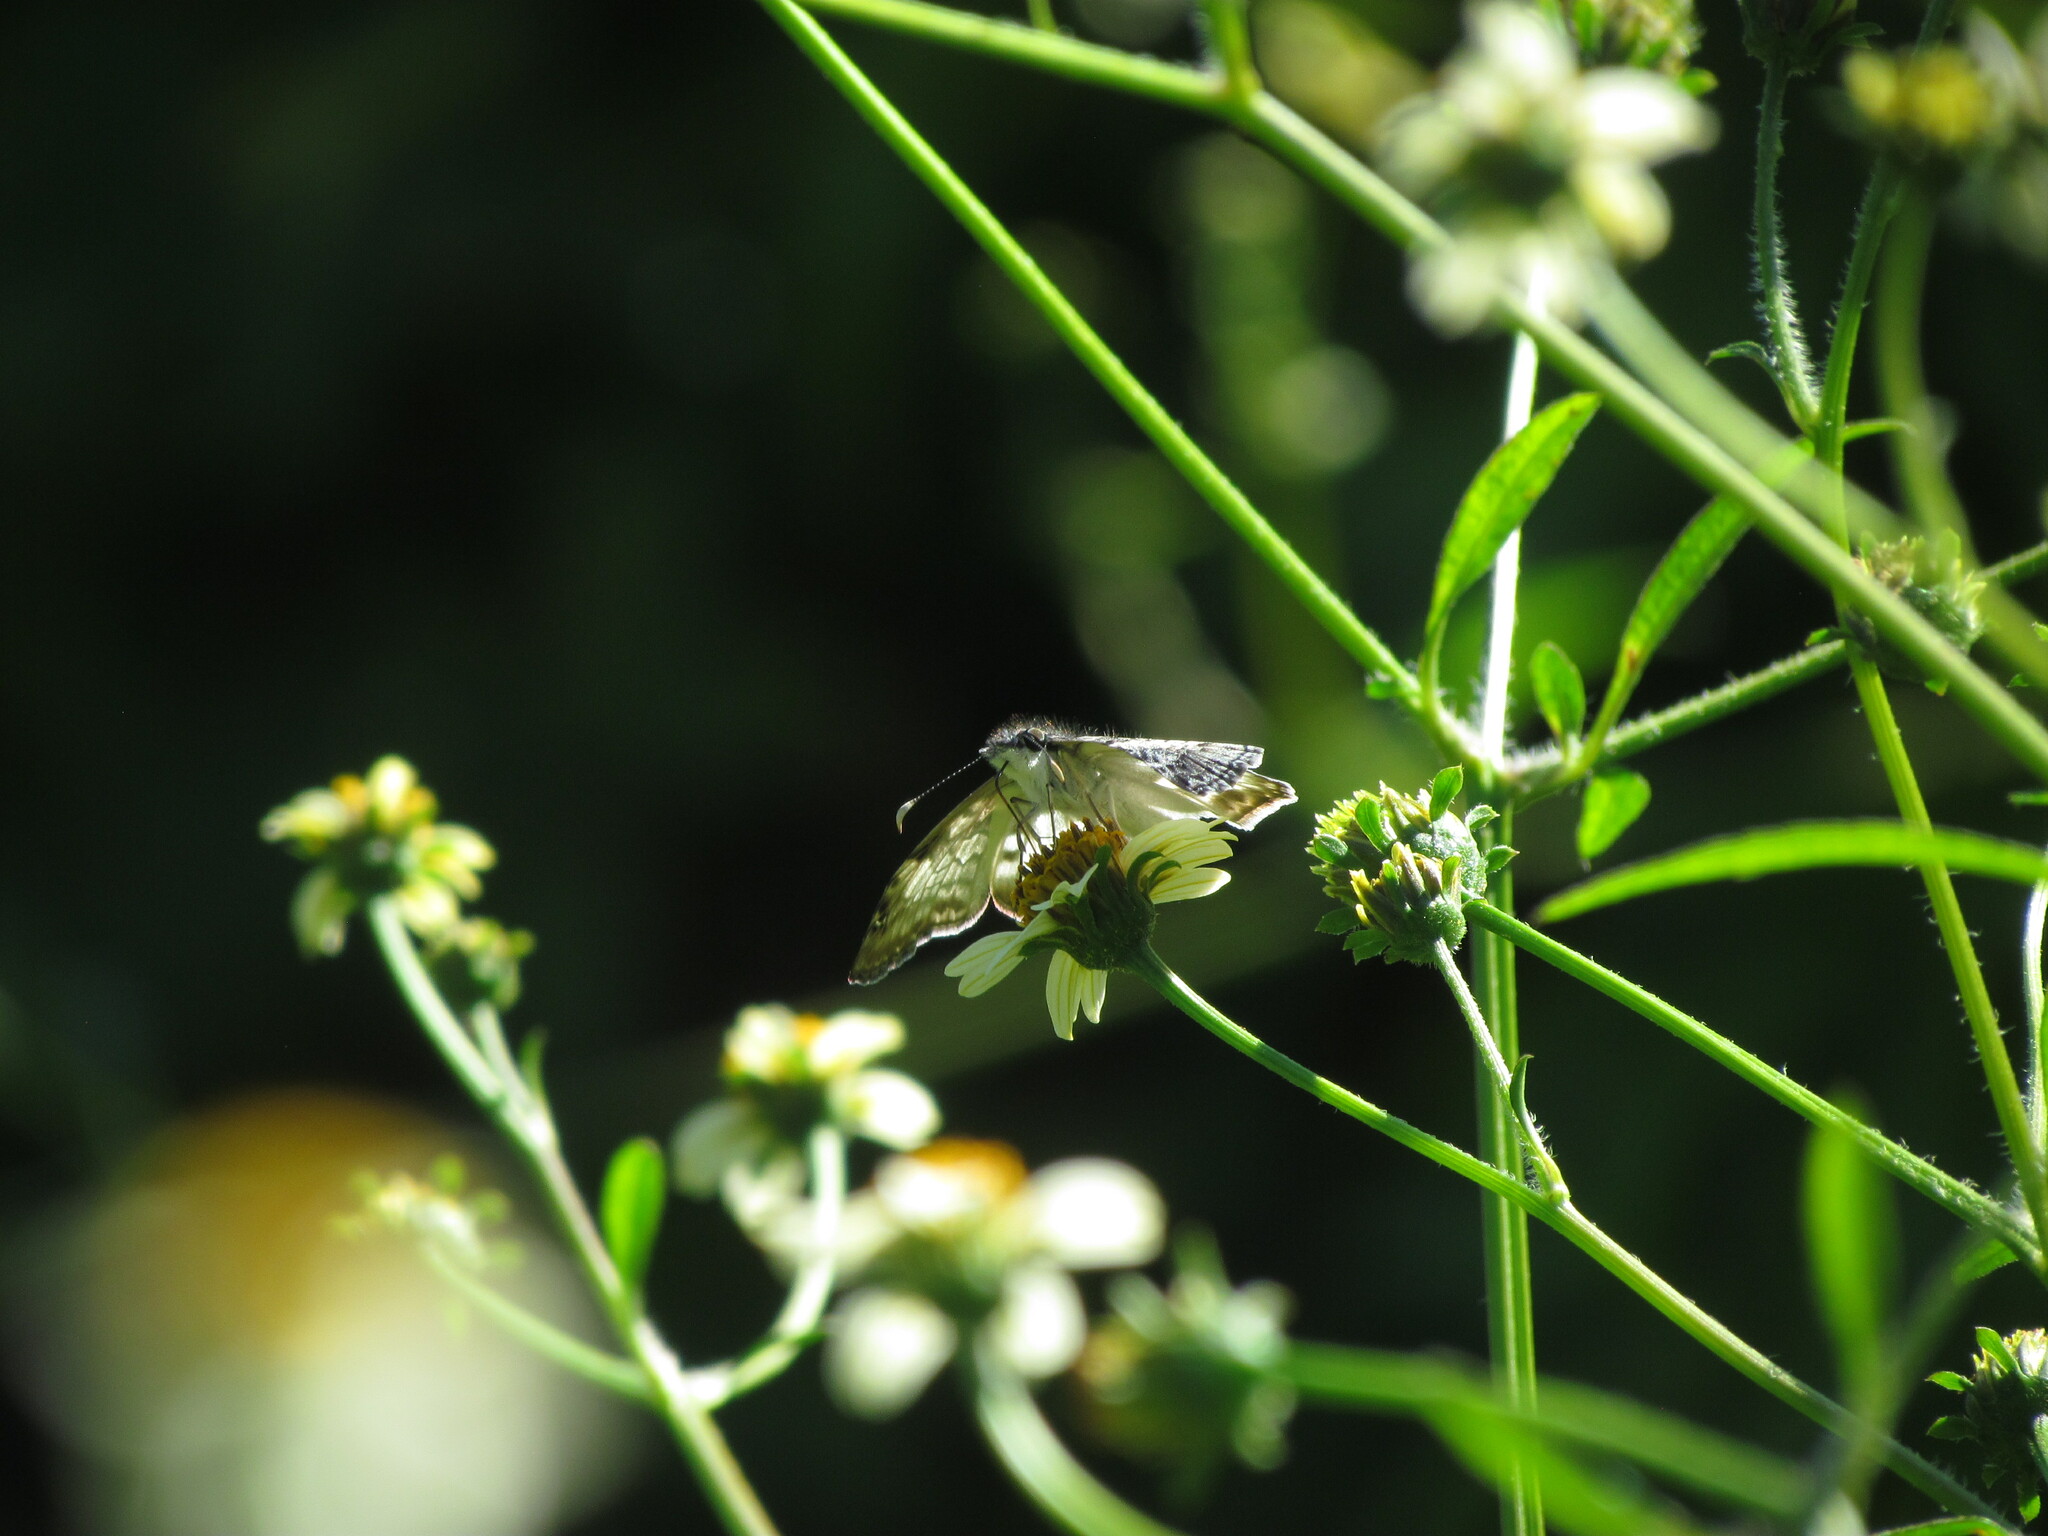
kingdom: Animalia
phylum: Arthropoda
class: Insecta
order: Lepidoptera
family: Hesperiidae
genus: Chiomara
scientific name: Chiomara asychis
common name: White-patterned skipper
